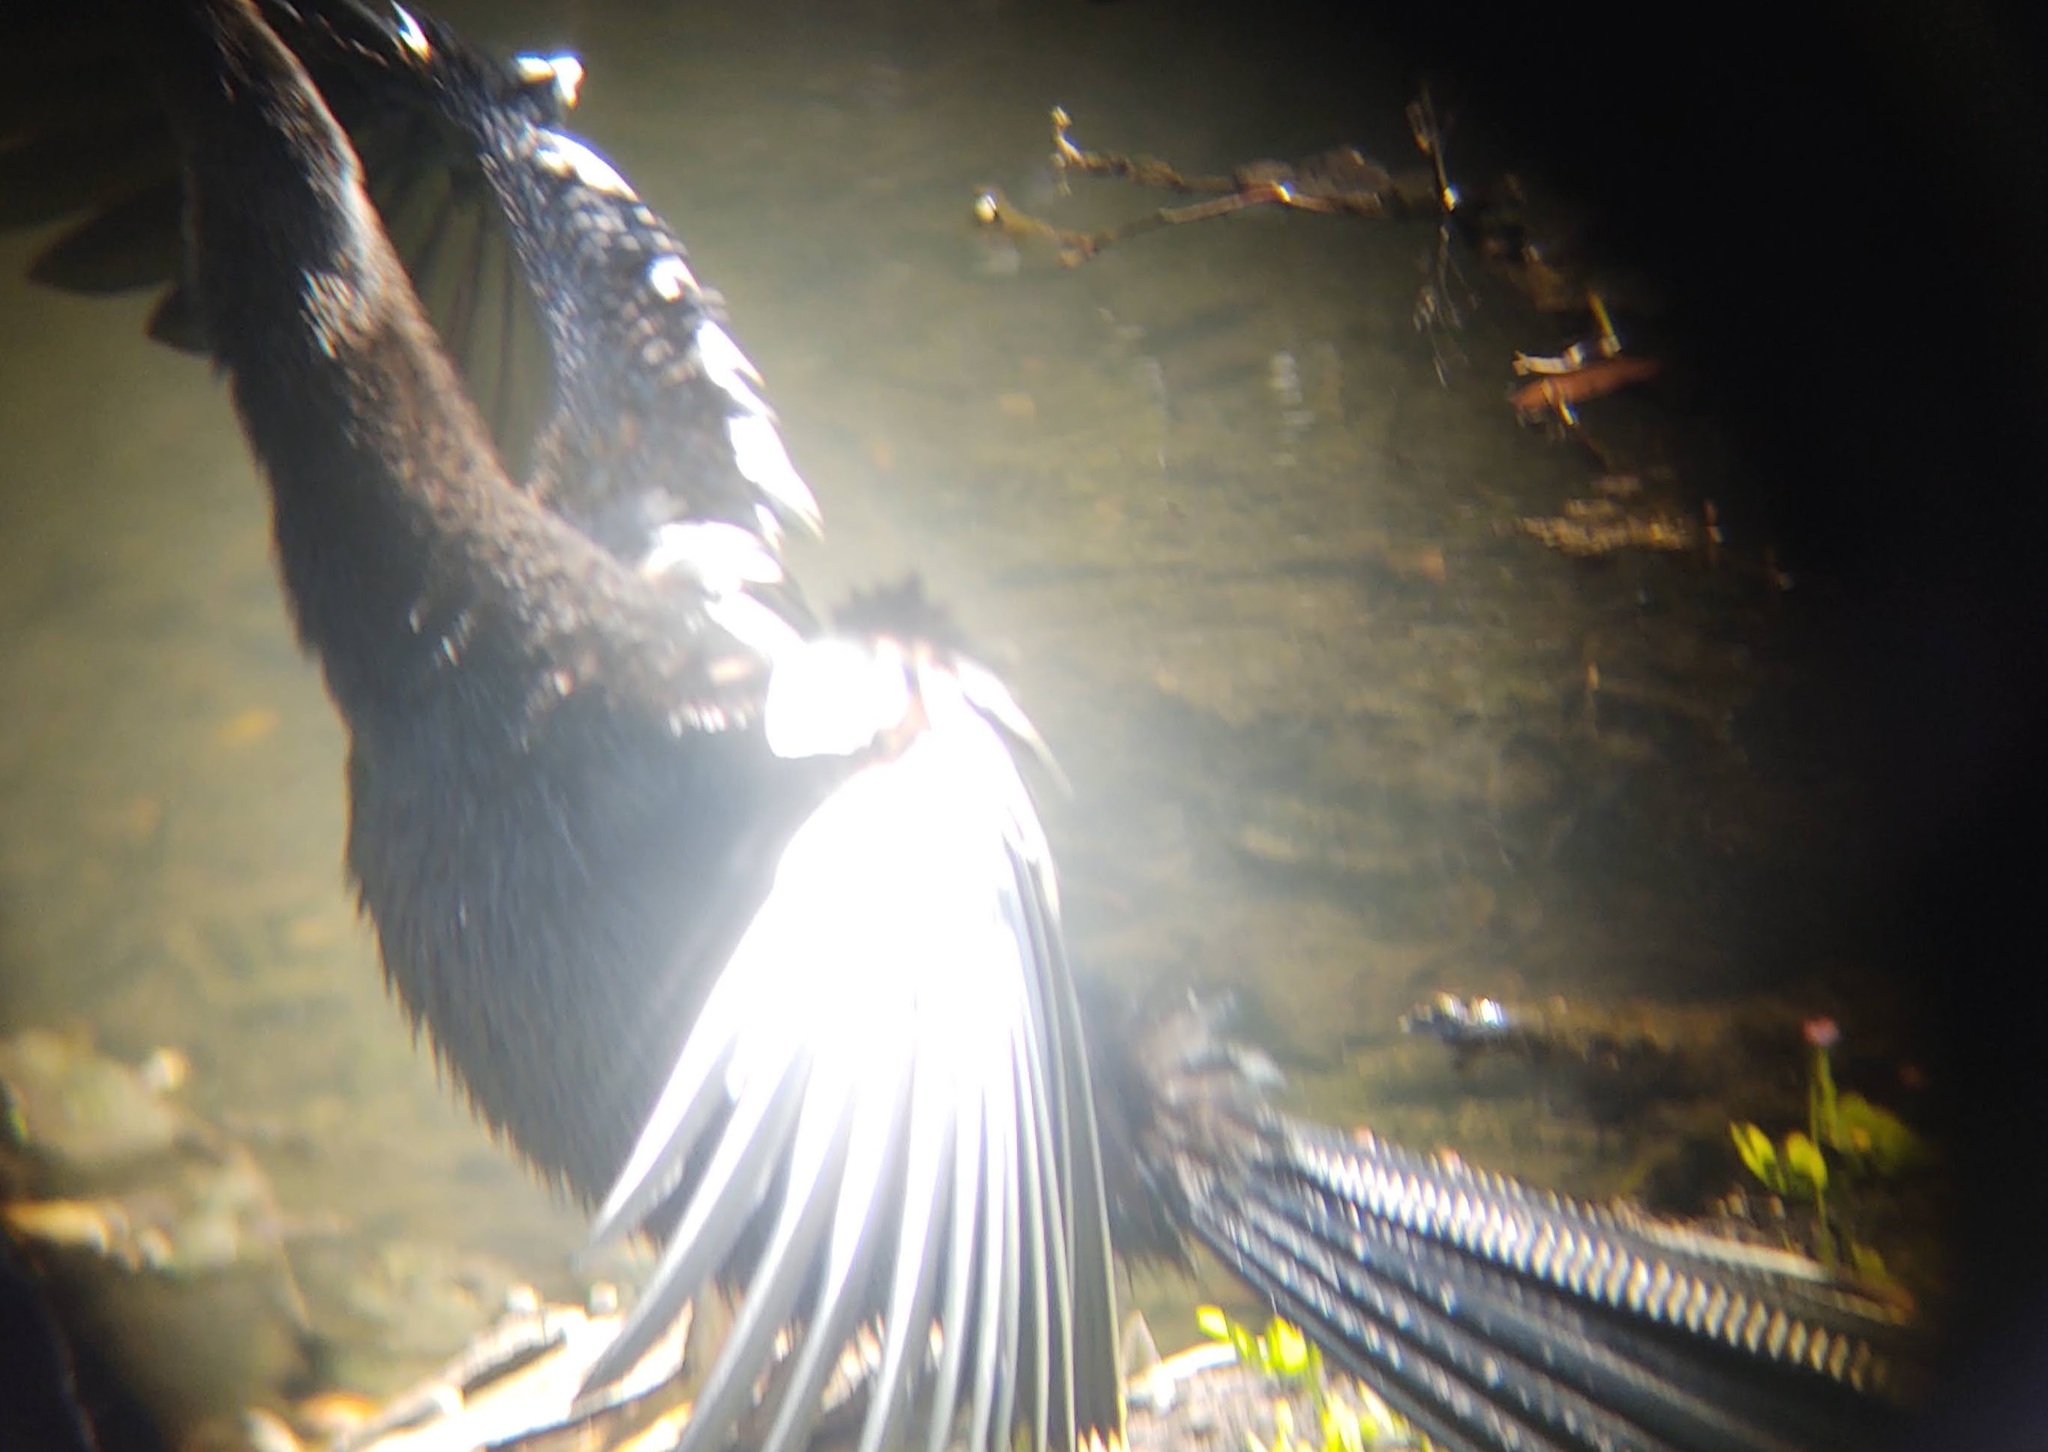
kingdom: Animalia
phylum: Chordata
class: Aves
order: Suliformes
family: Anhingidae
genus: Anhinga
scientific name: Anhinga anhinga
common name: Anhinga
